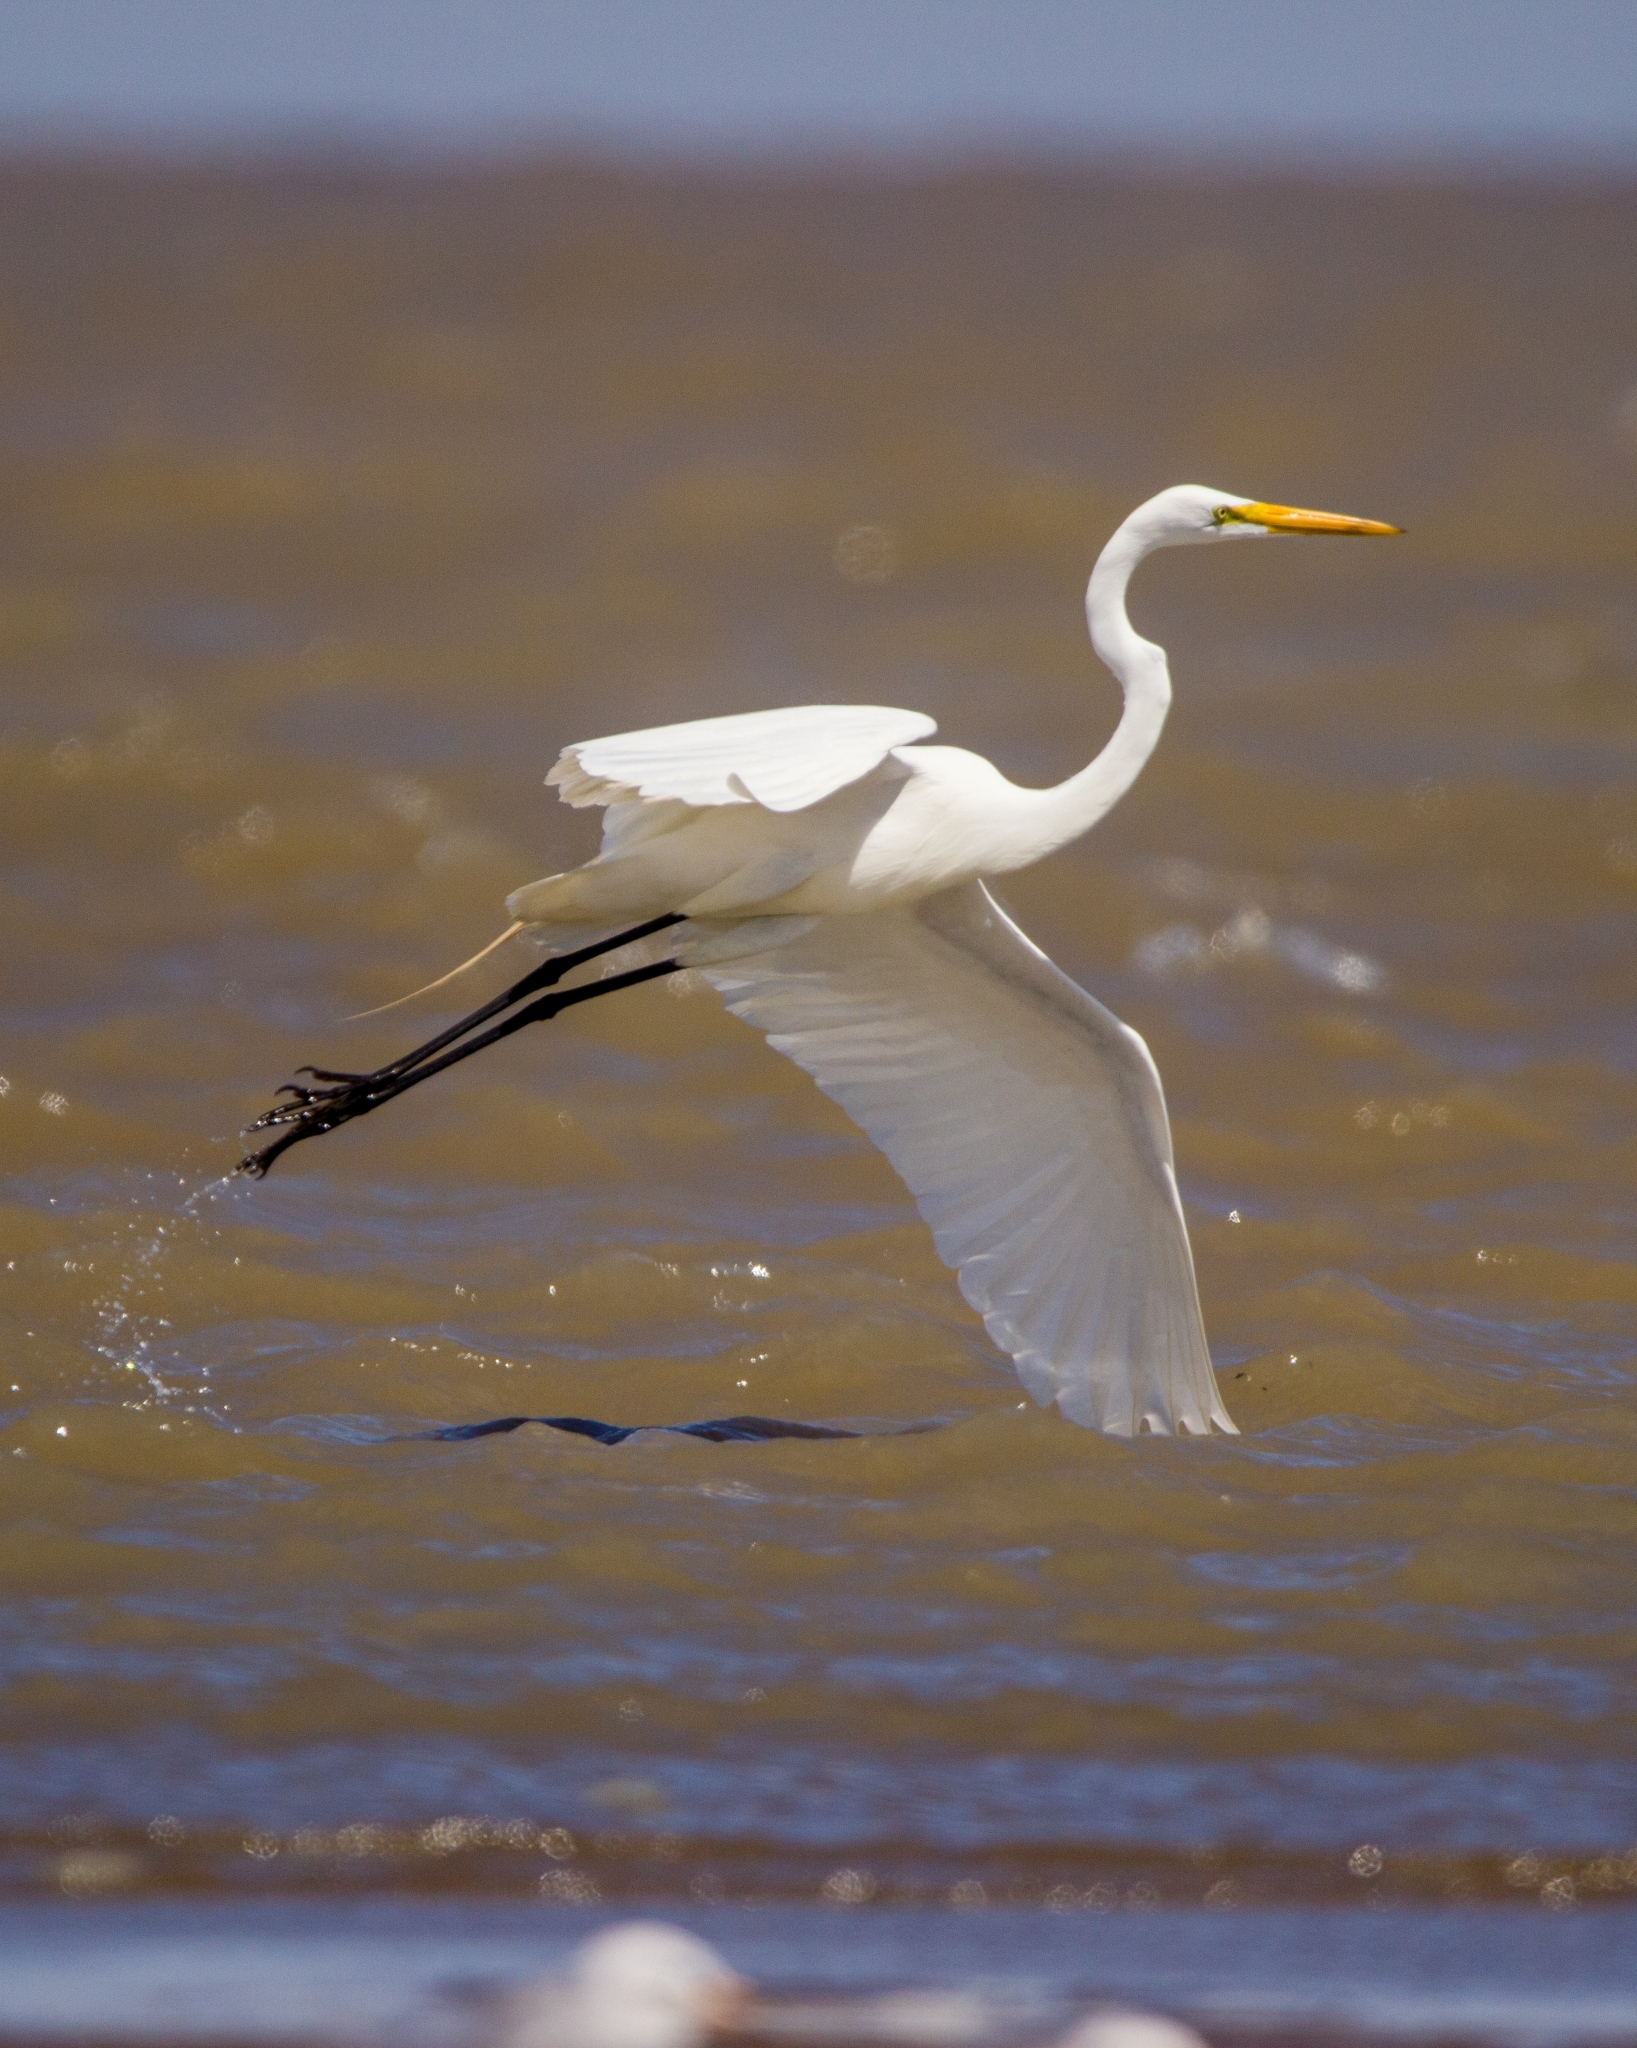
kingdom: Animalia
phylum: Chordata
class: Aves
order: Pelecaniformes
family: Ardeidae
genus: Ardea
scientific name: Ardea alba
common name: Great egret
